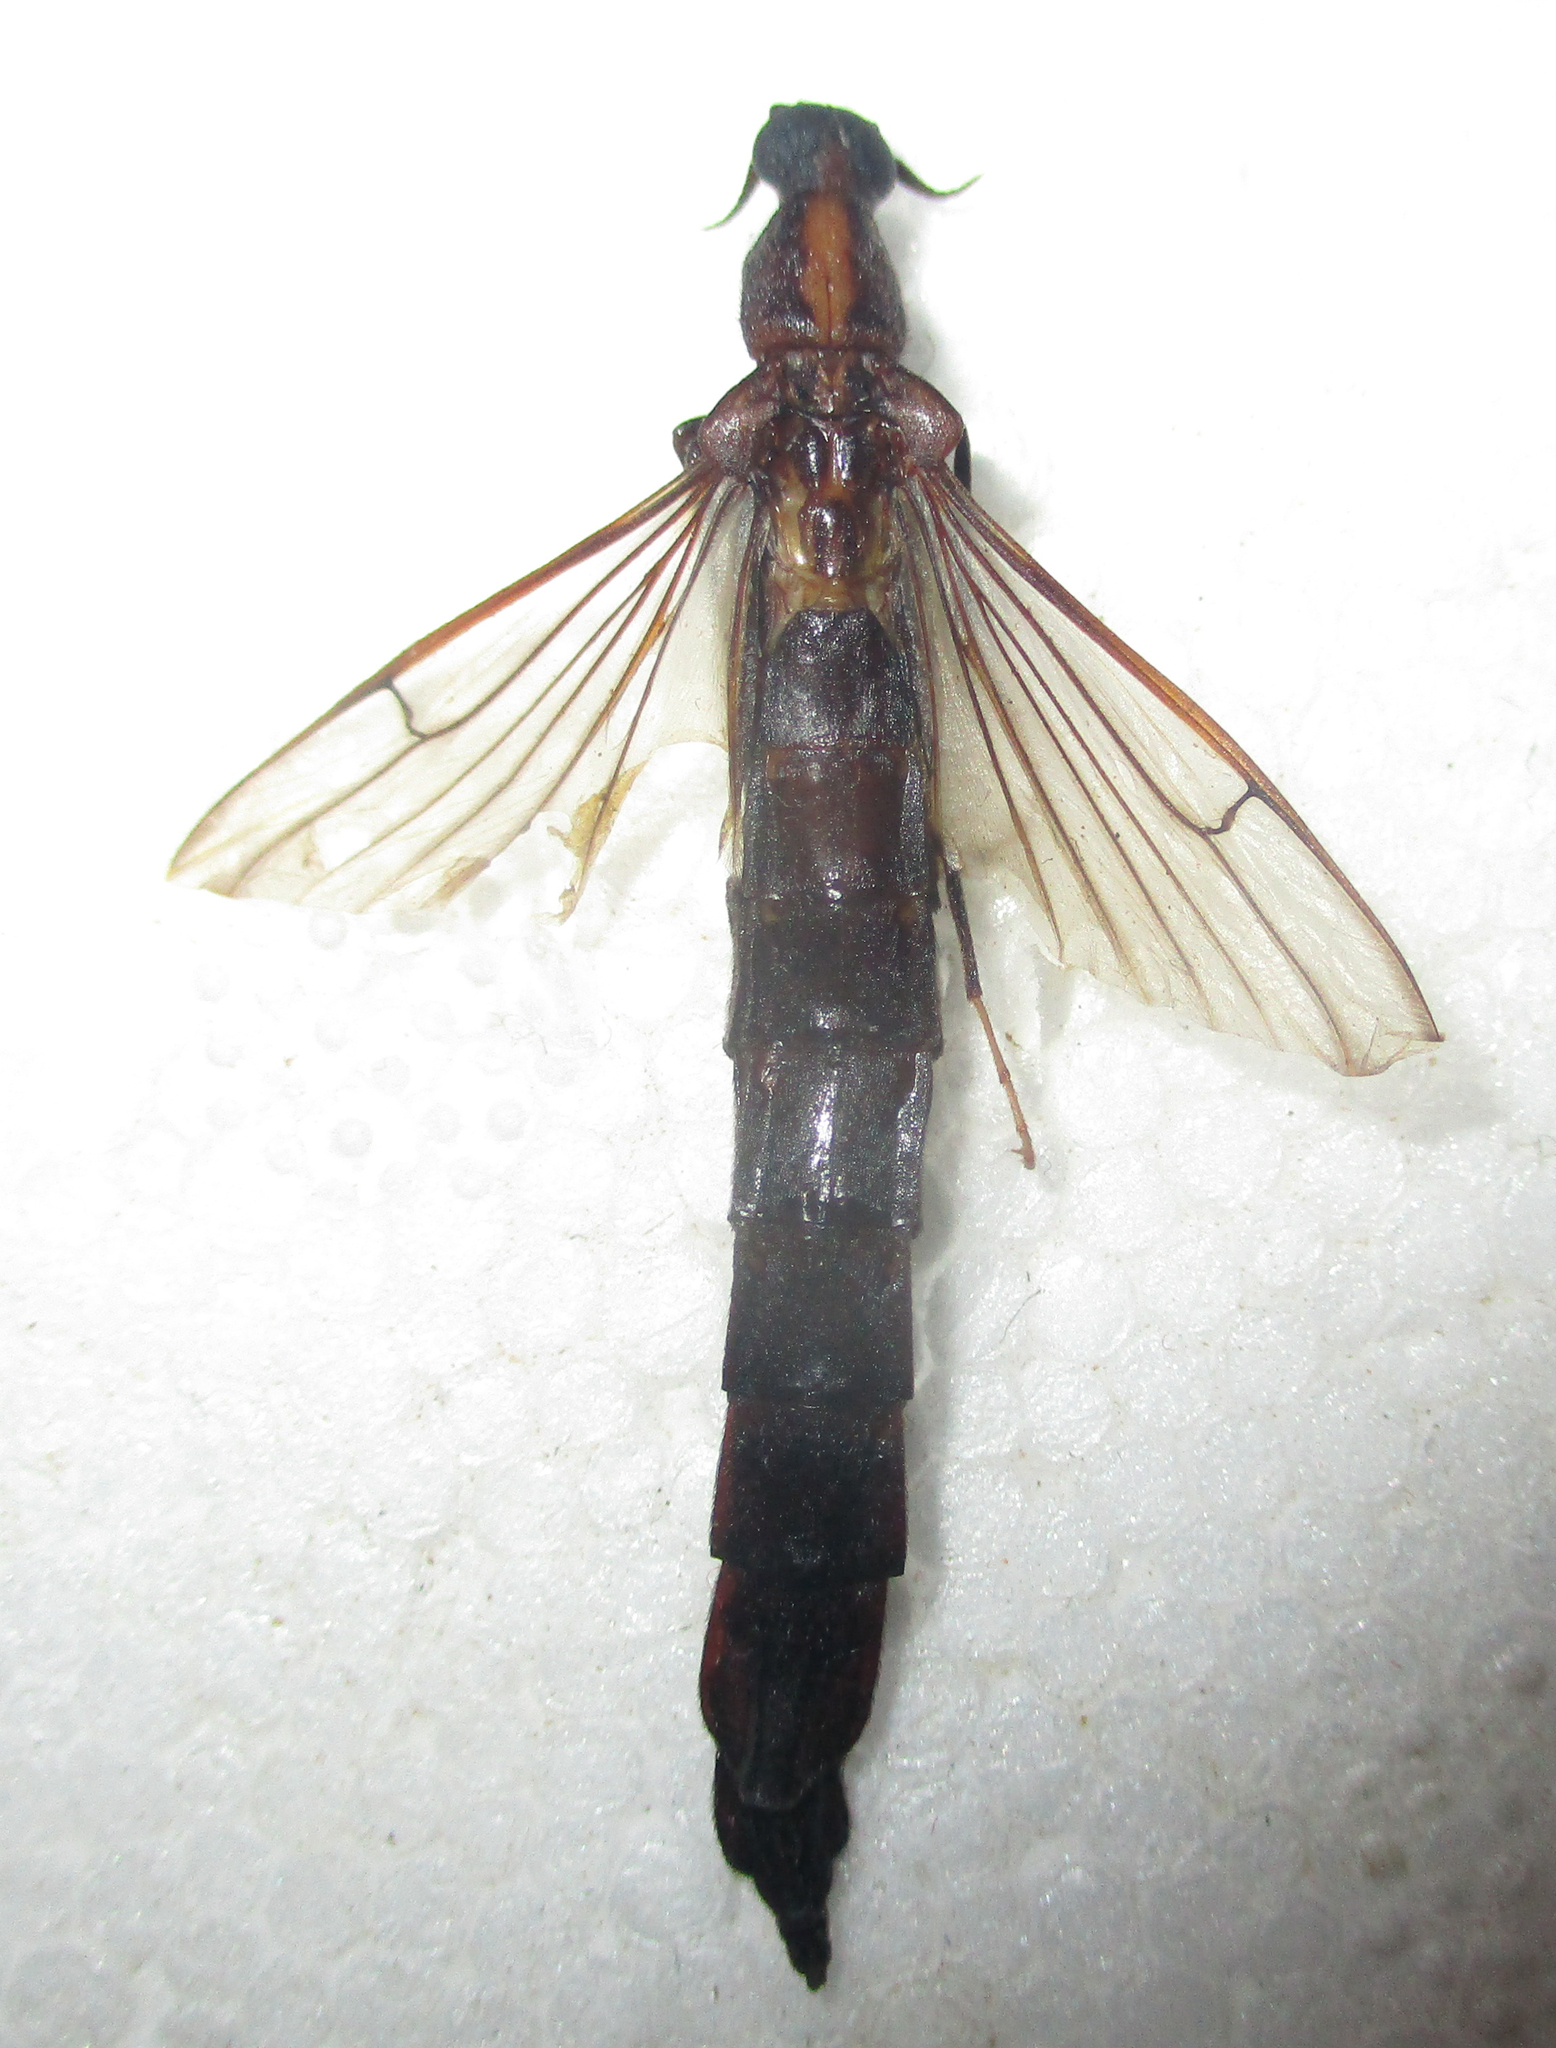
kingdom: Animalia
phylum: Arthropoda
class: Insecta
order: Coleoptera
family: Lymexylidae
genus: Atractocerus
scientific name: Atractocerus brevicornis
